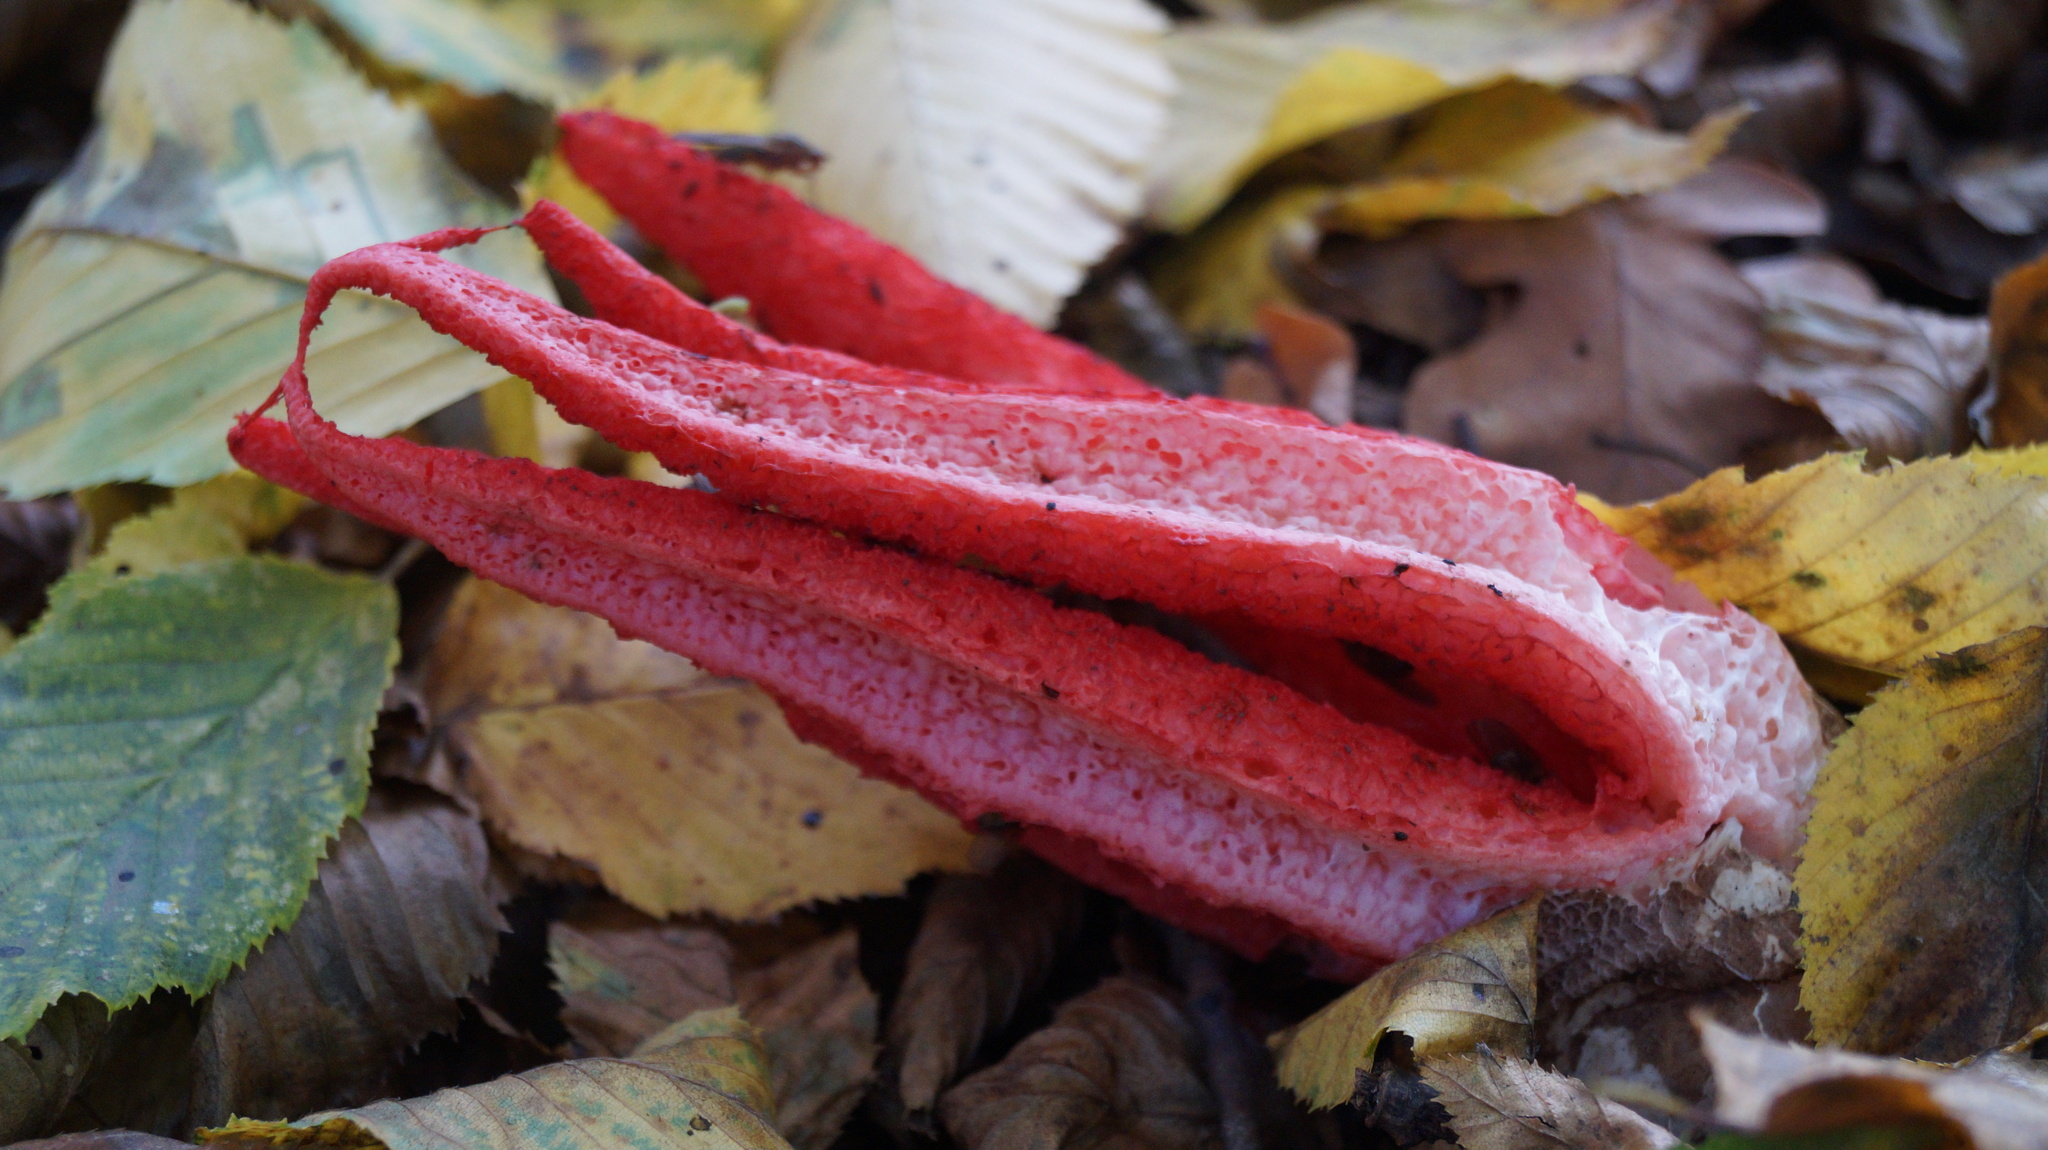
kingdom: Fungi
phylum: Basidiomycota
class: Agaricomycetes
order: Phallales
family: Phallaceae
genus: Clathrus
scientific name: Clathrus archeri
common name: Devil's fingers
